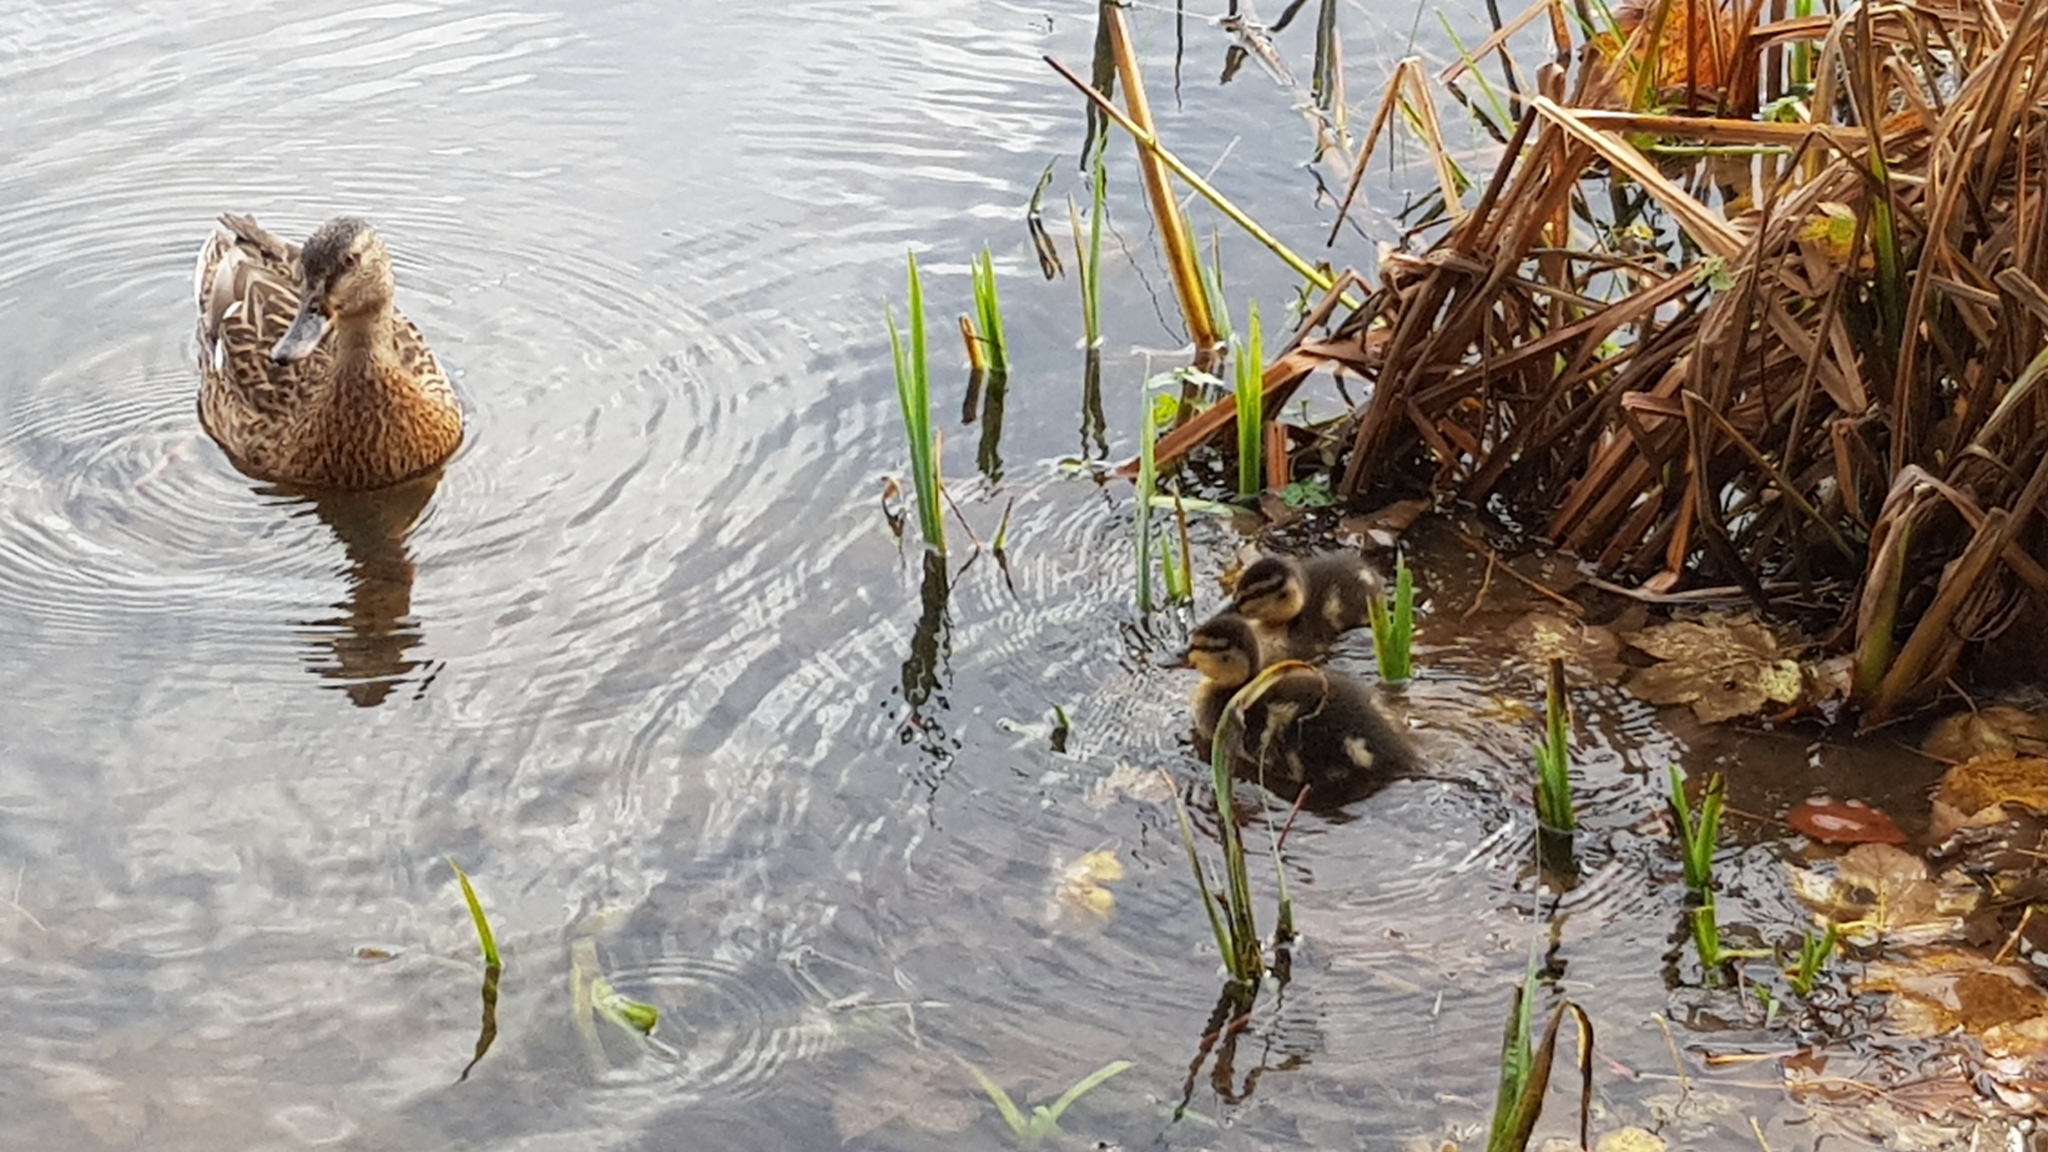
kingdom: Animalia
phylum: Chordata
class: Aves
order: Anseriformes
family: Anatidae
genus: Anas
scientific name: Anas platyrhynchos
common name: Mallard
